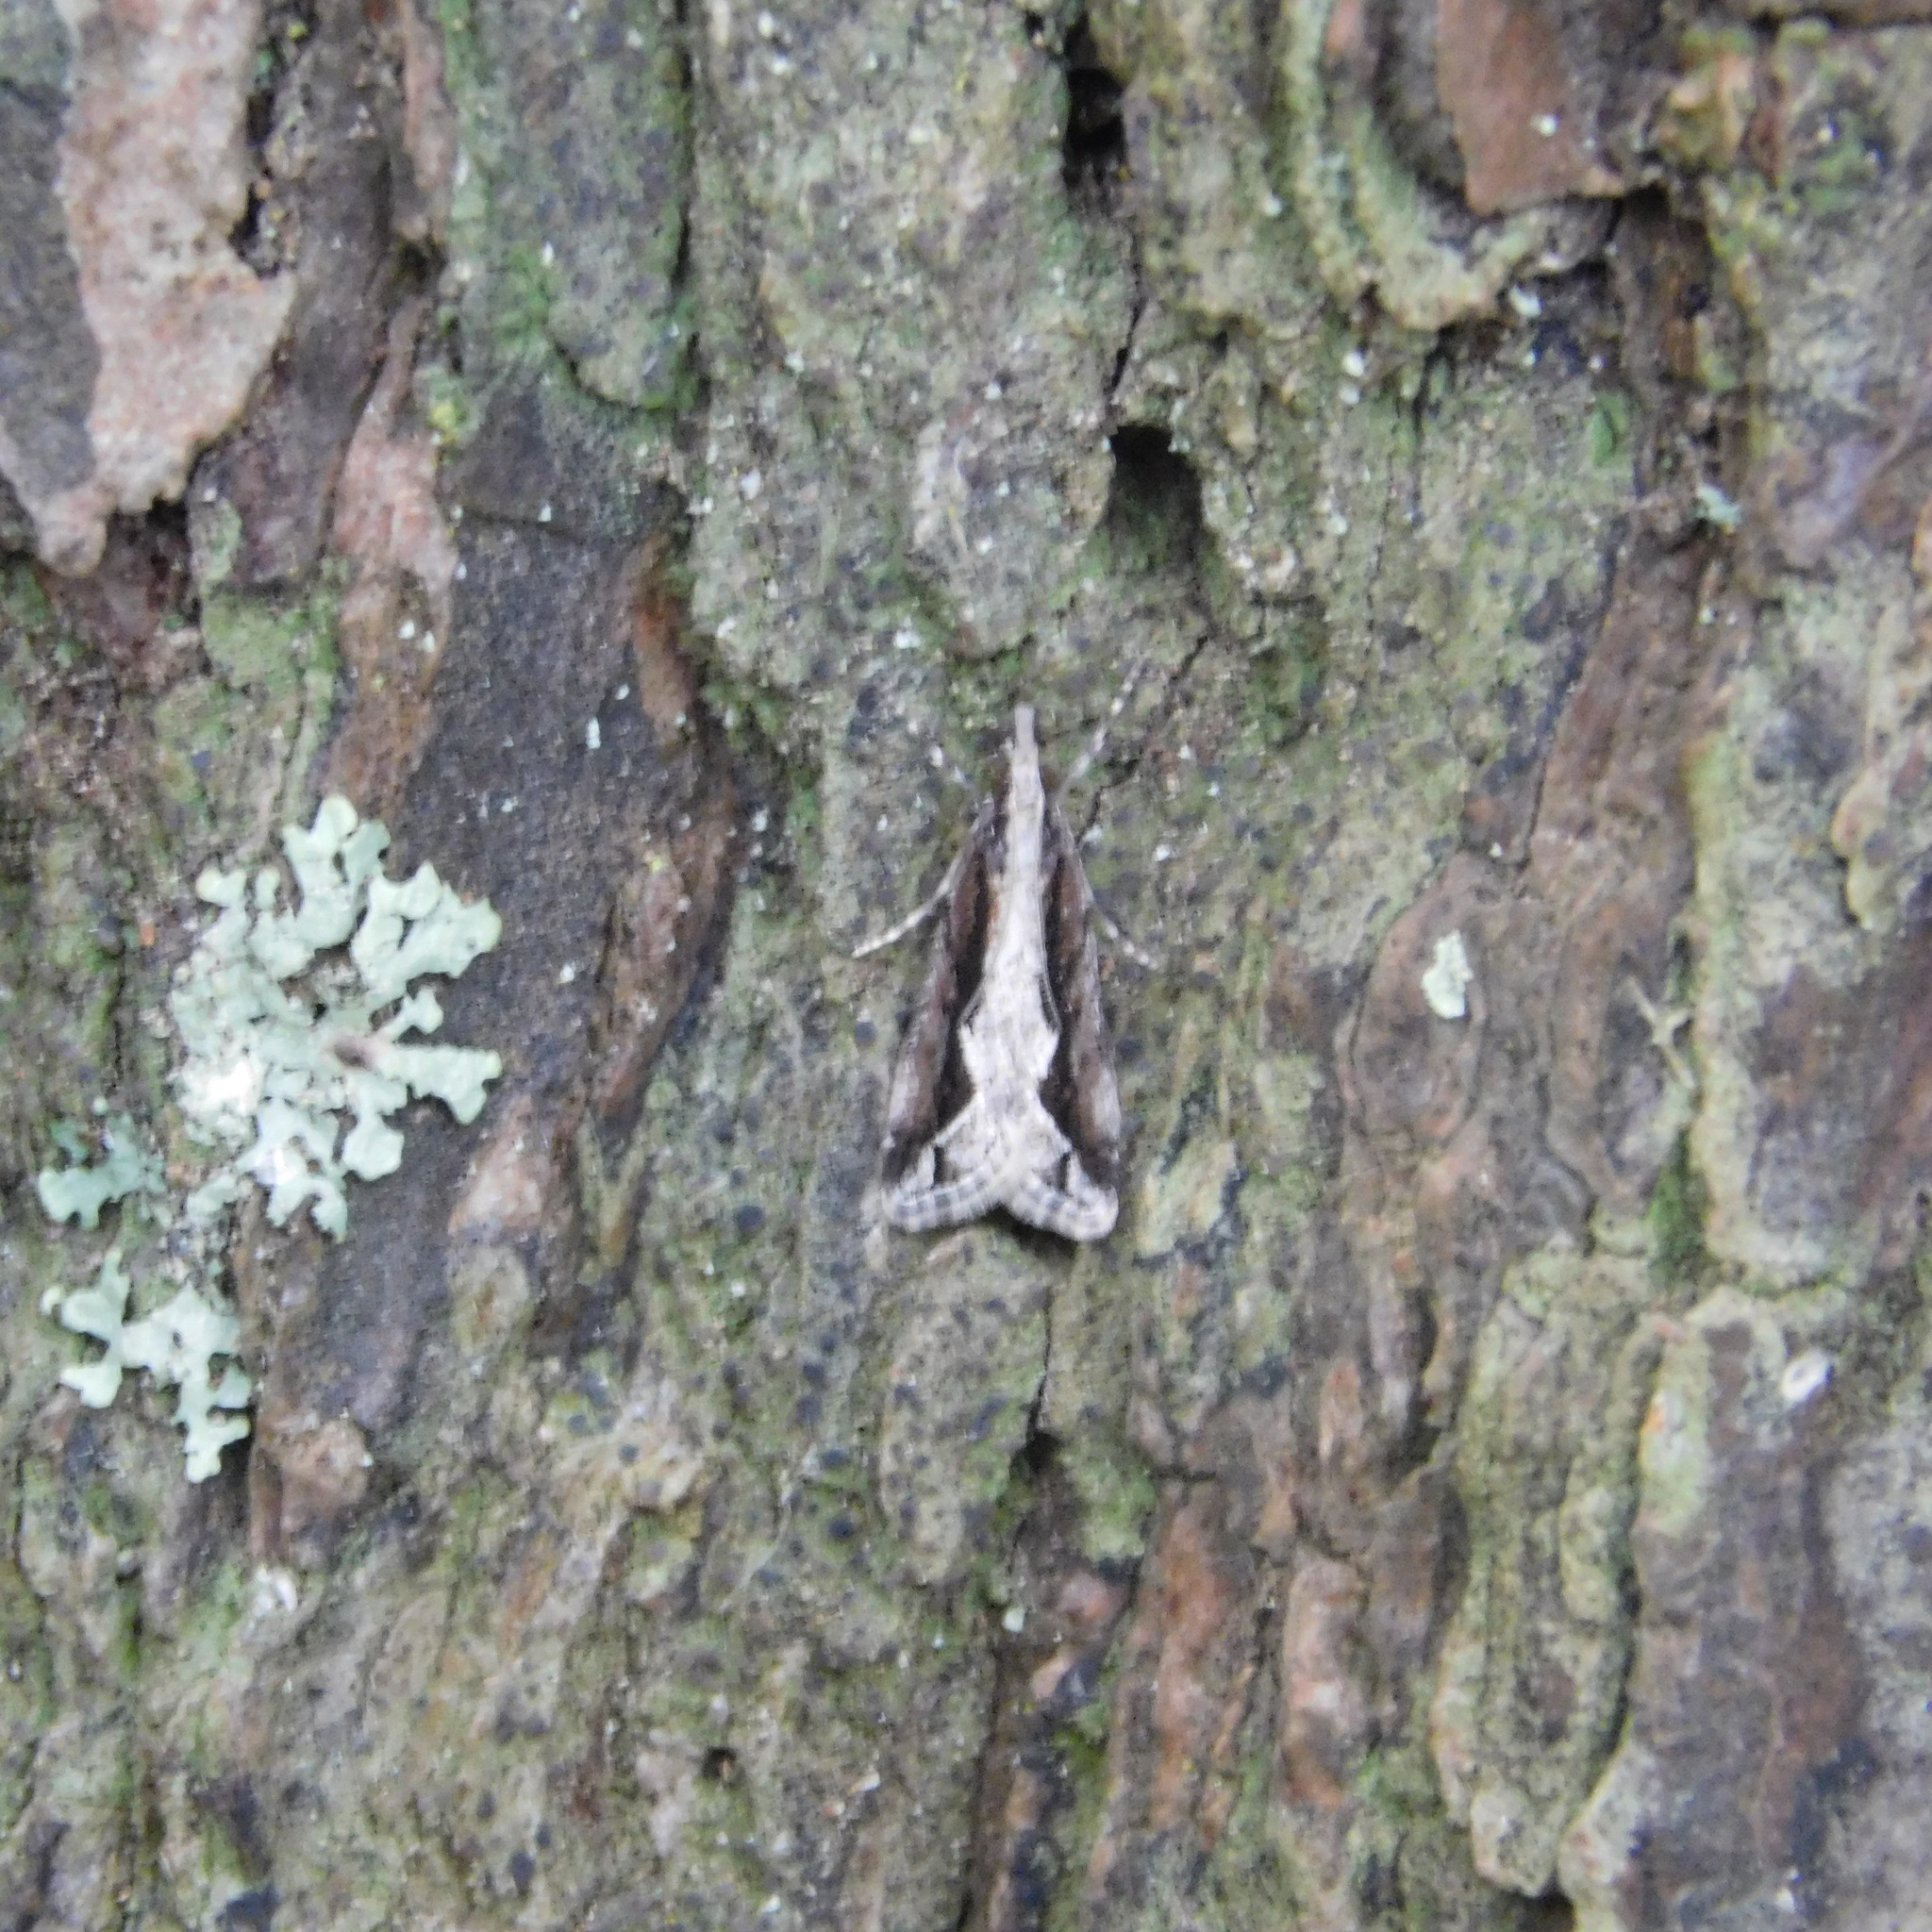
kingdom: Animalia
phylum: Arthropoda
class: Insecta
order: Lepidoptera
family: Crambidae
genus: Eudonia
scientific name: Eudonia steropaea
